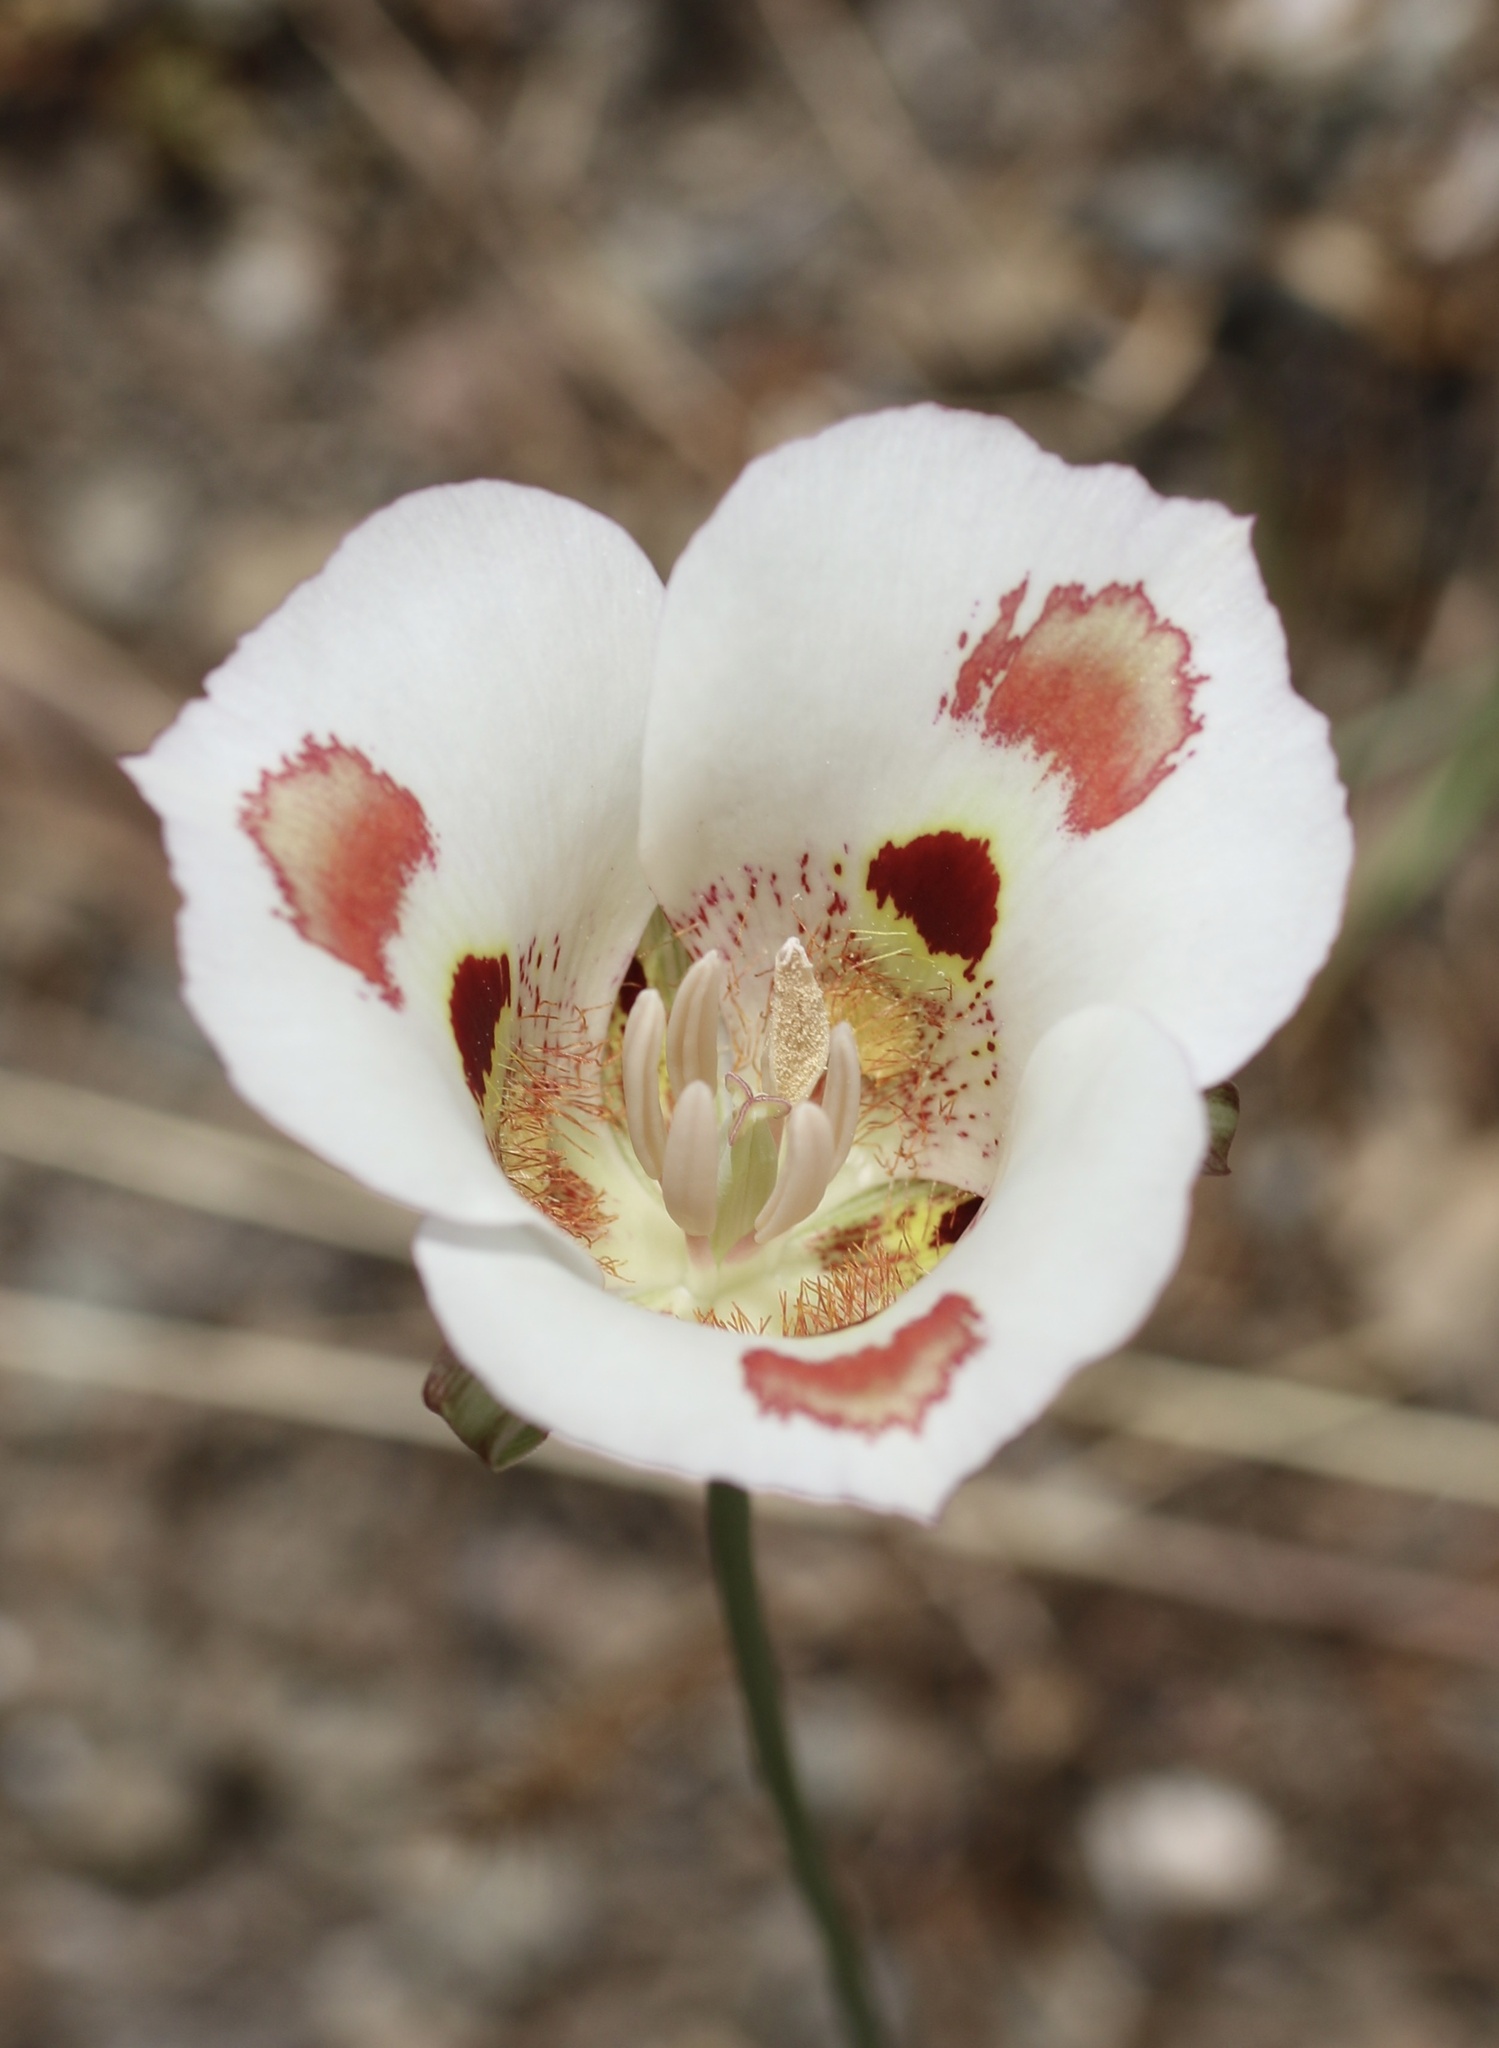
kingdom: Plantae
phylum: Tracheophyta
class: Liliopsida
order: Liliales
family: Liliaceae
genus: Calochortus
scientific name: Calochortus venustus
